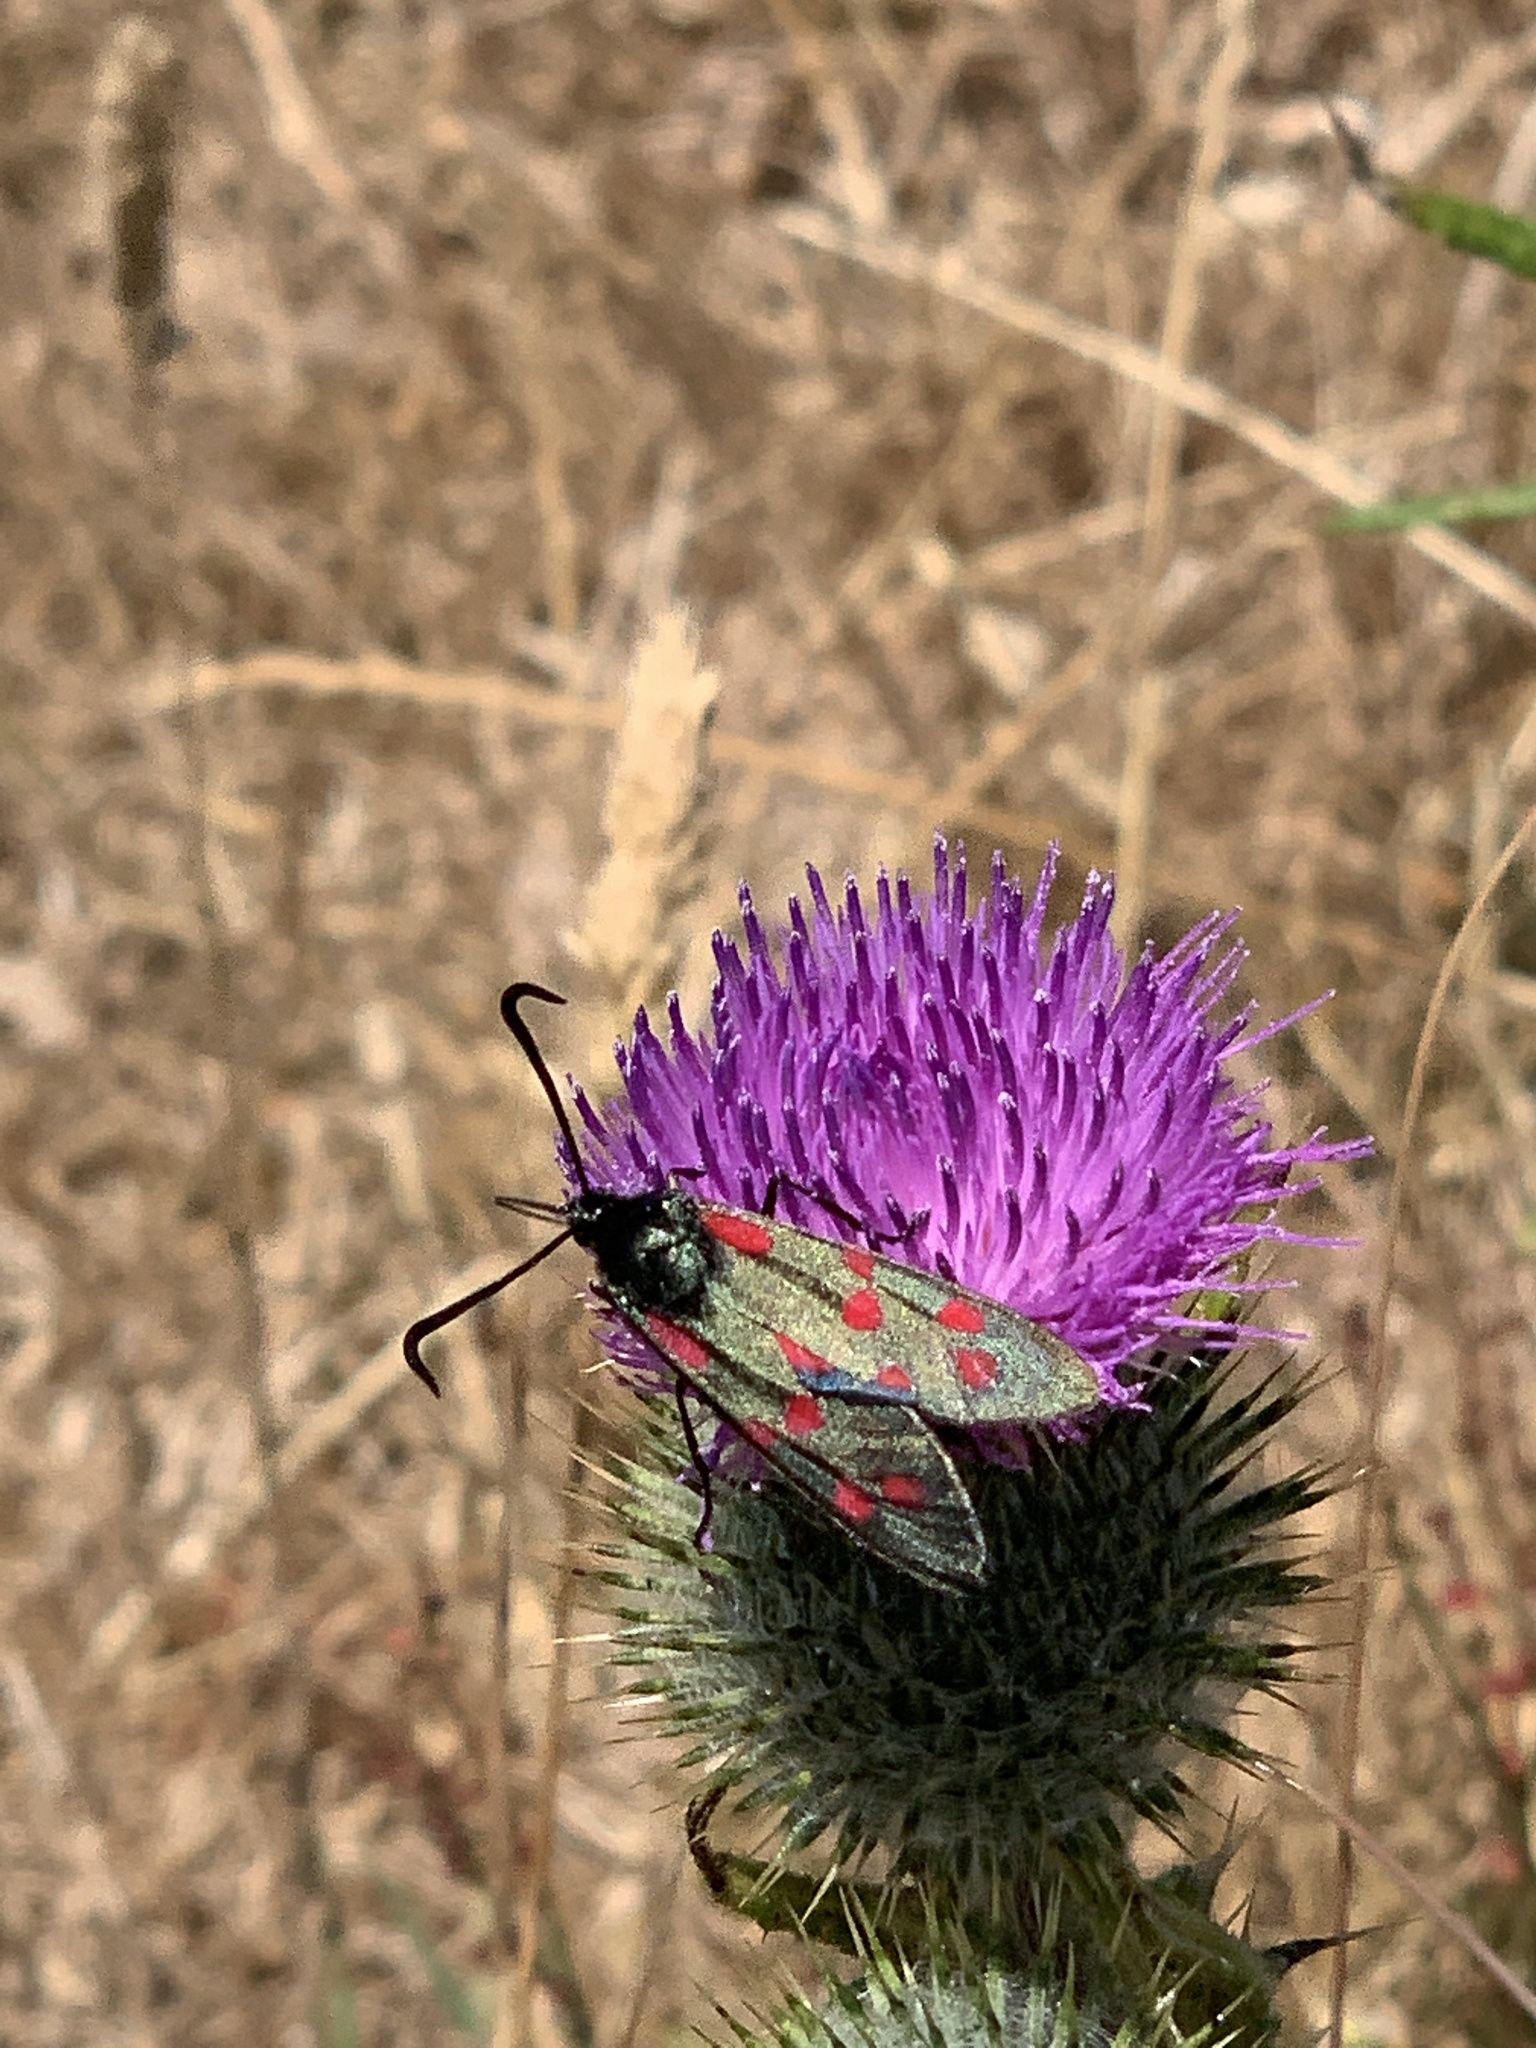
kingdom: Animalia
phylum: Arthropoda
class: Insecta
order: Lepidoptera
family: Zygaenidae
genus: Zygaena
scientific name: Zygaena filipendulae
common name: Six-spot burnet
